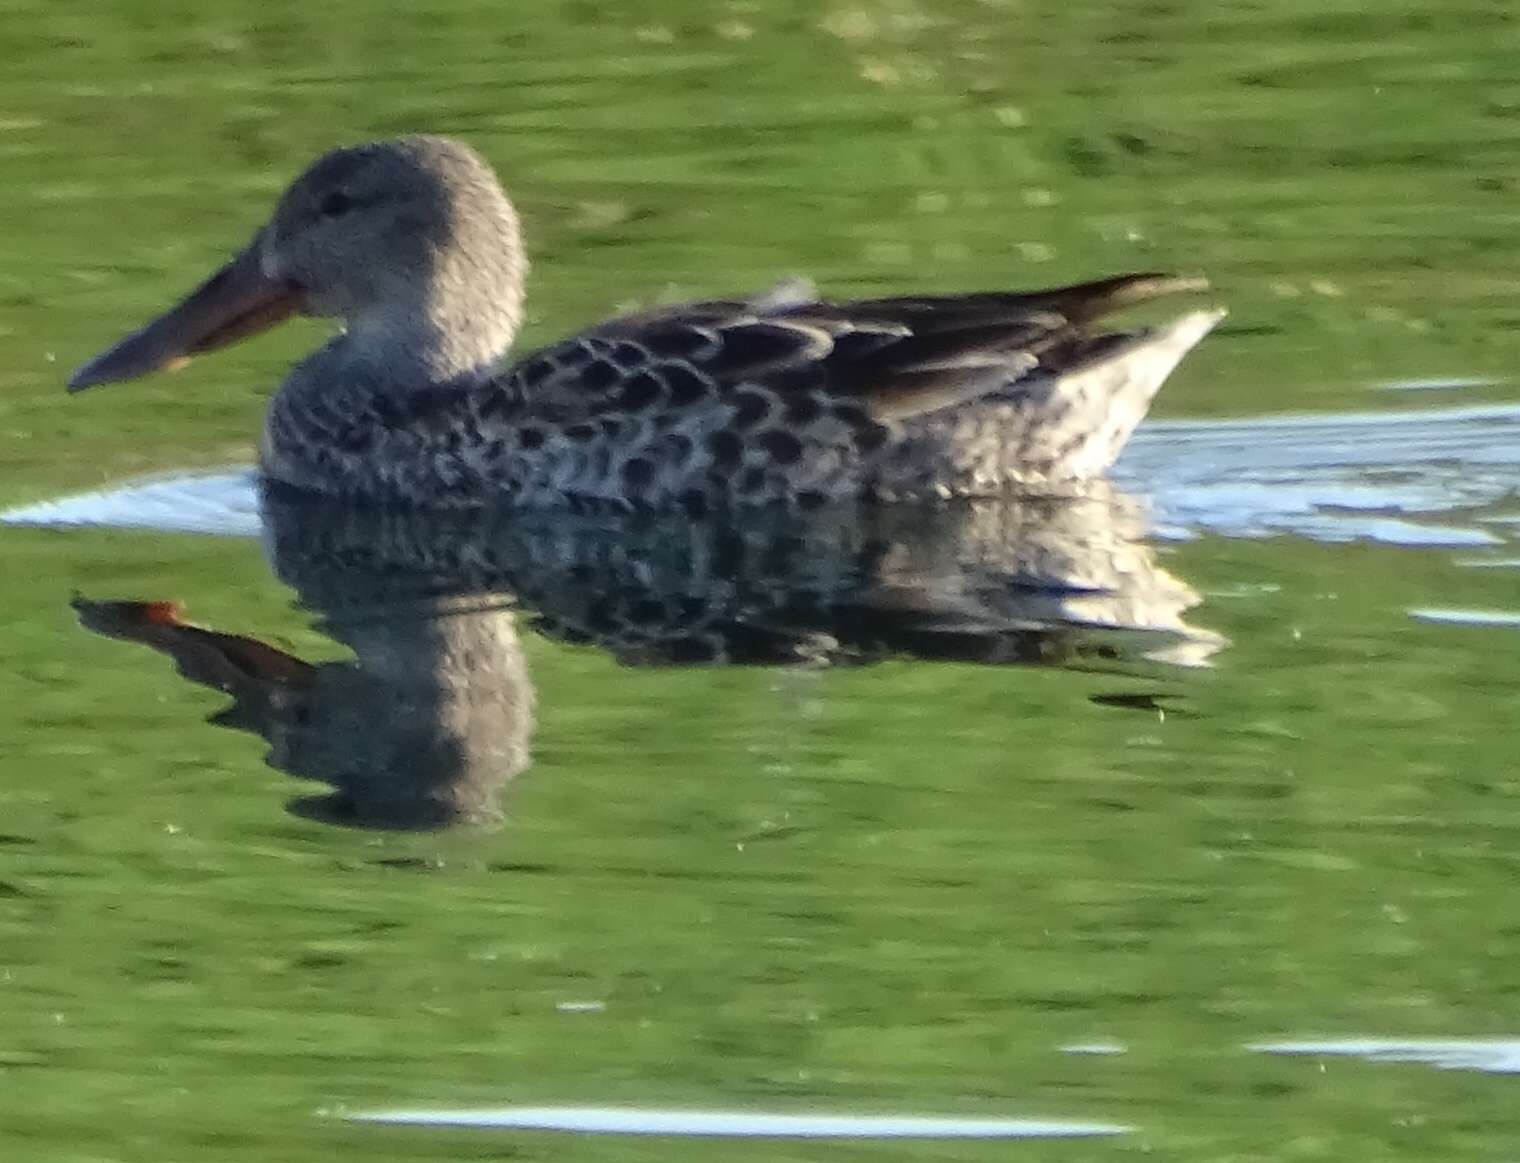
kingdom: Animalia
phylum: Chordata
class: Aves
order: Anseriformes
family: Anatidae
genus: Spatula
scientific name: Spatula clypeata
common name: Northern shoveler
